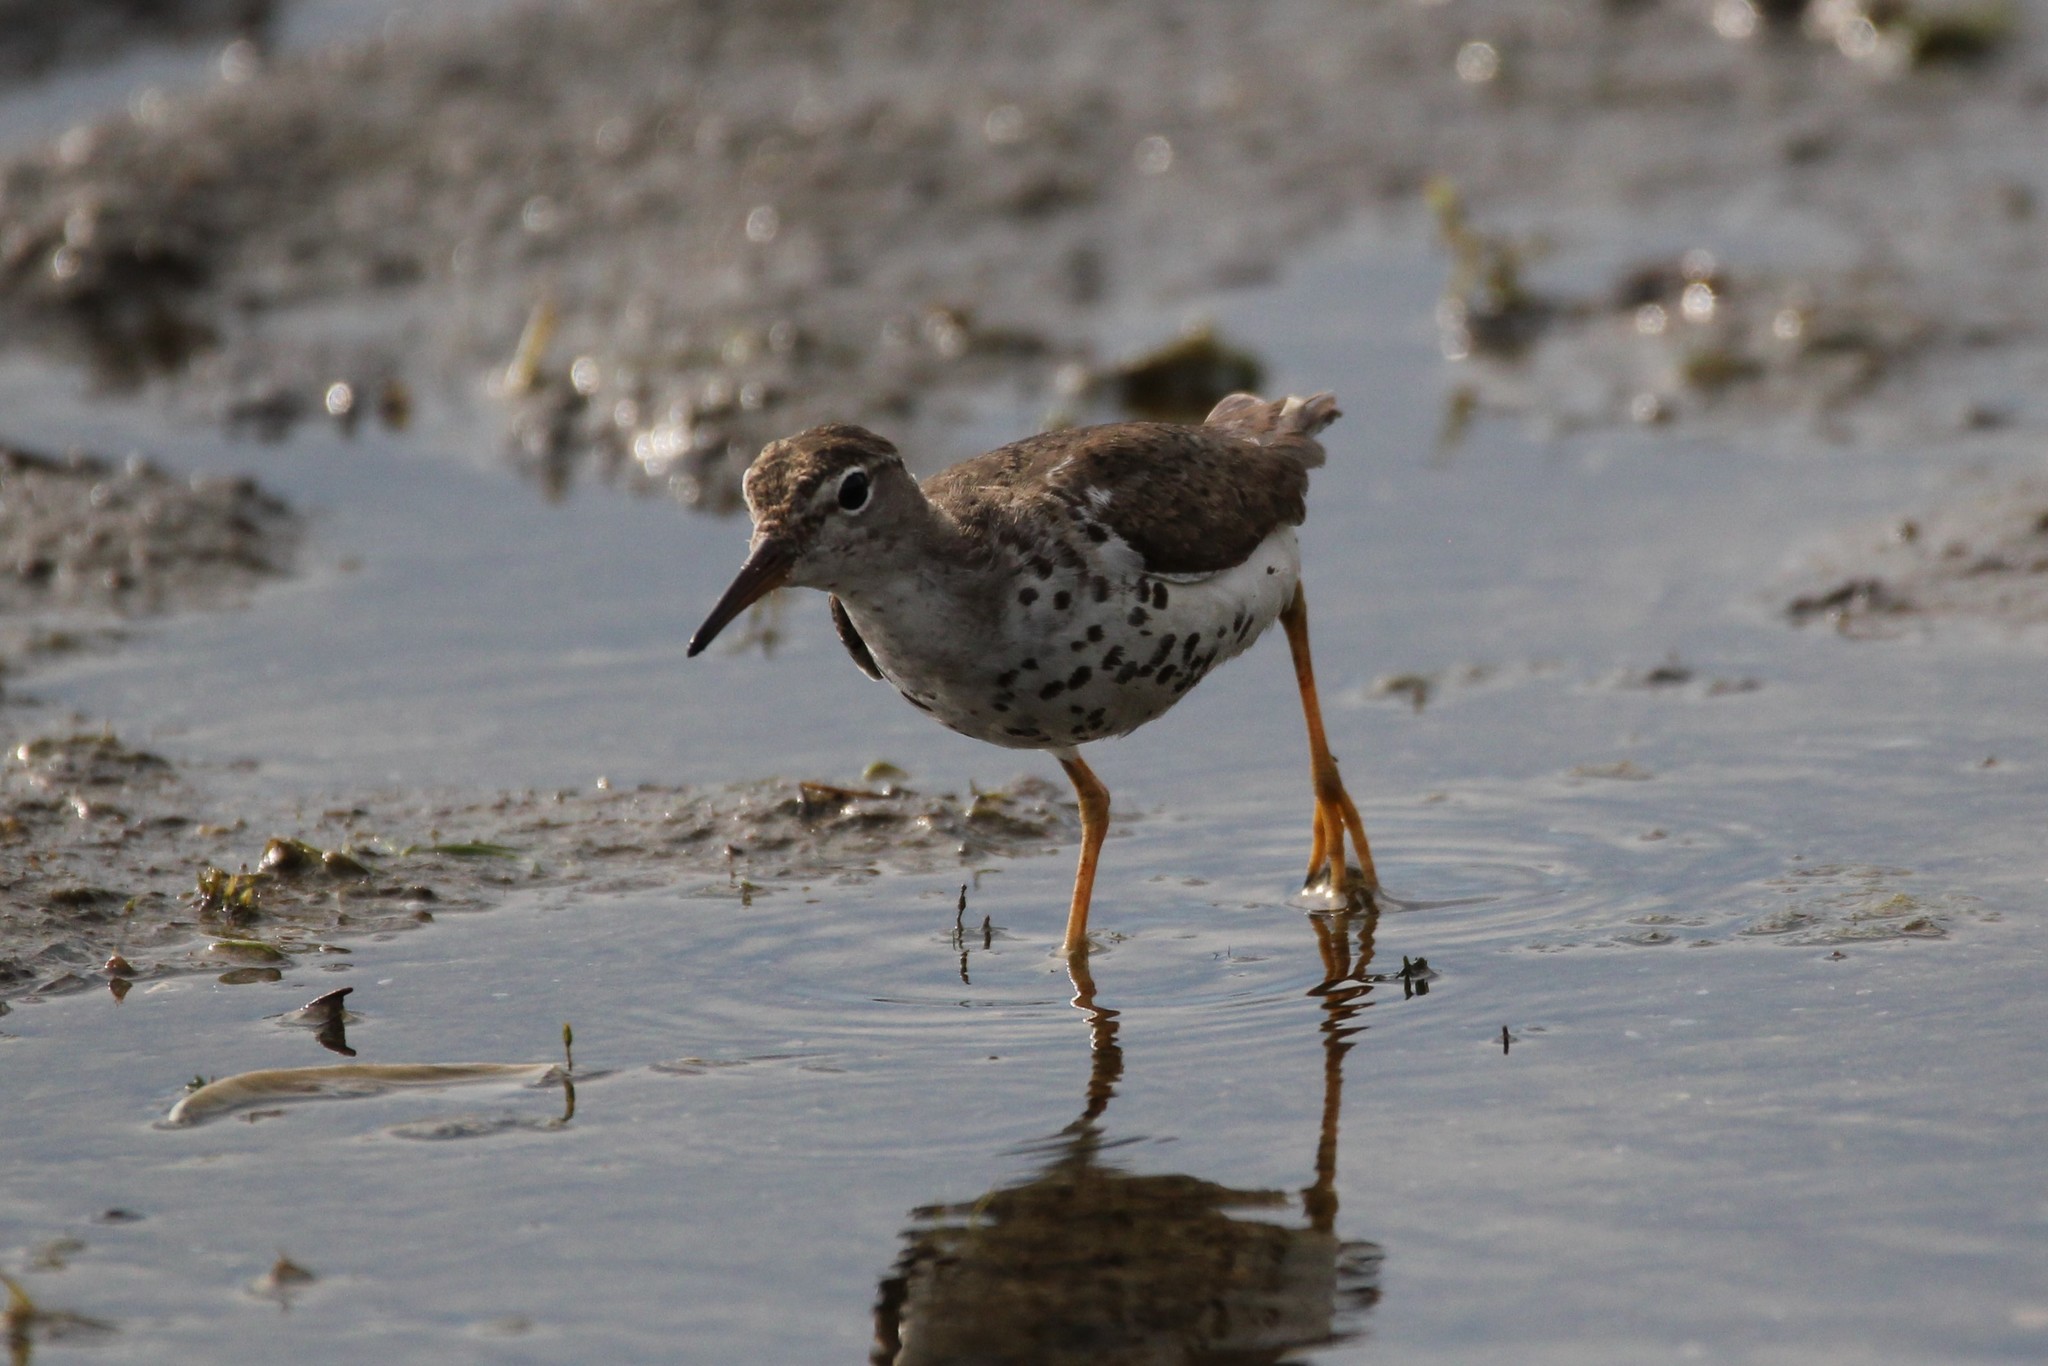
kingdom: Animalia
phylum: Chordata
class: Aves
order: Charadriiformes
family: Scolopacidae
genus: Actitis
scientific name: Actitis macularius
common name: Spotted sandpiper
